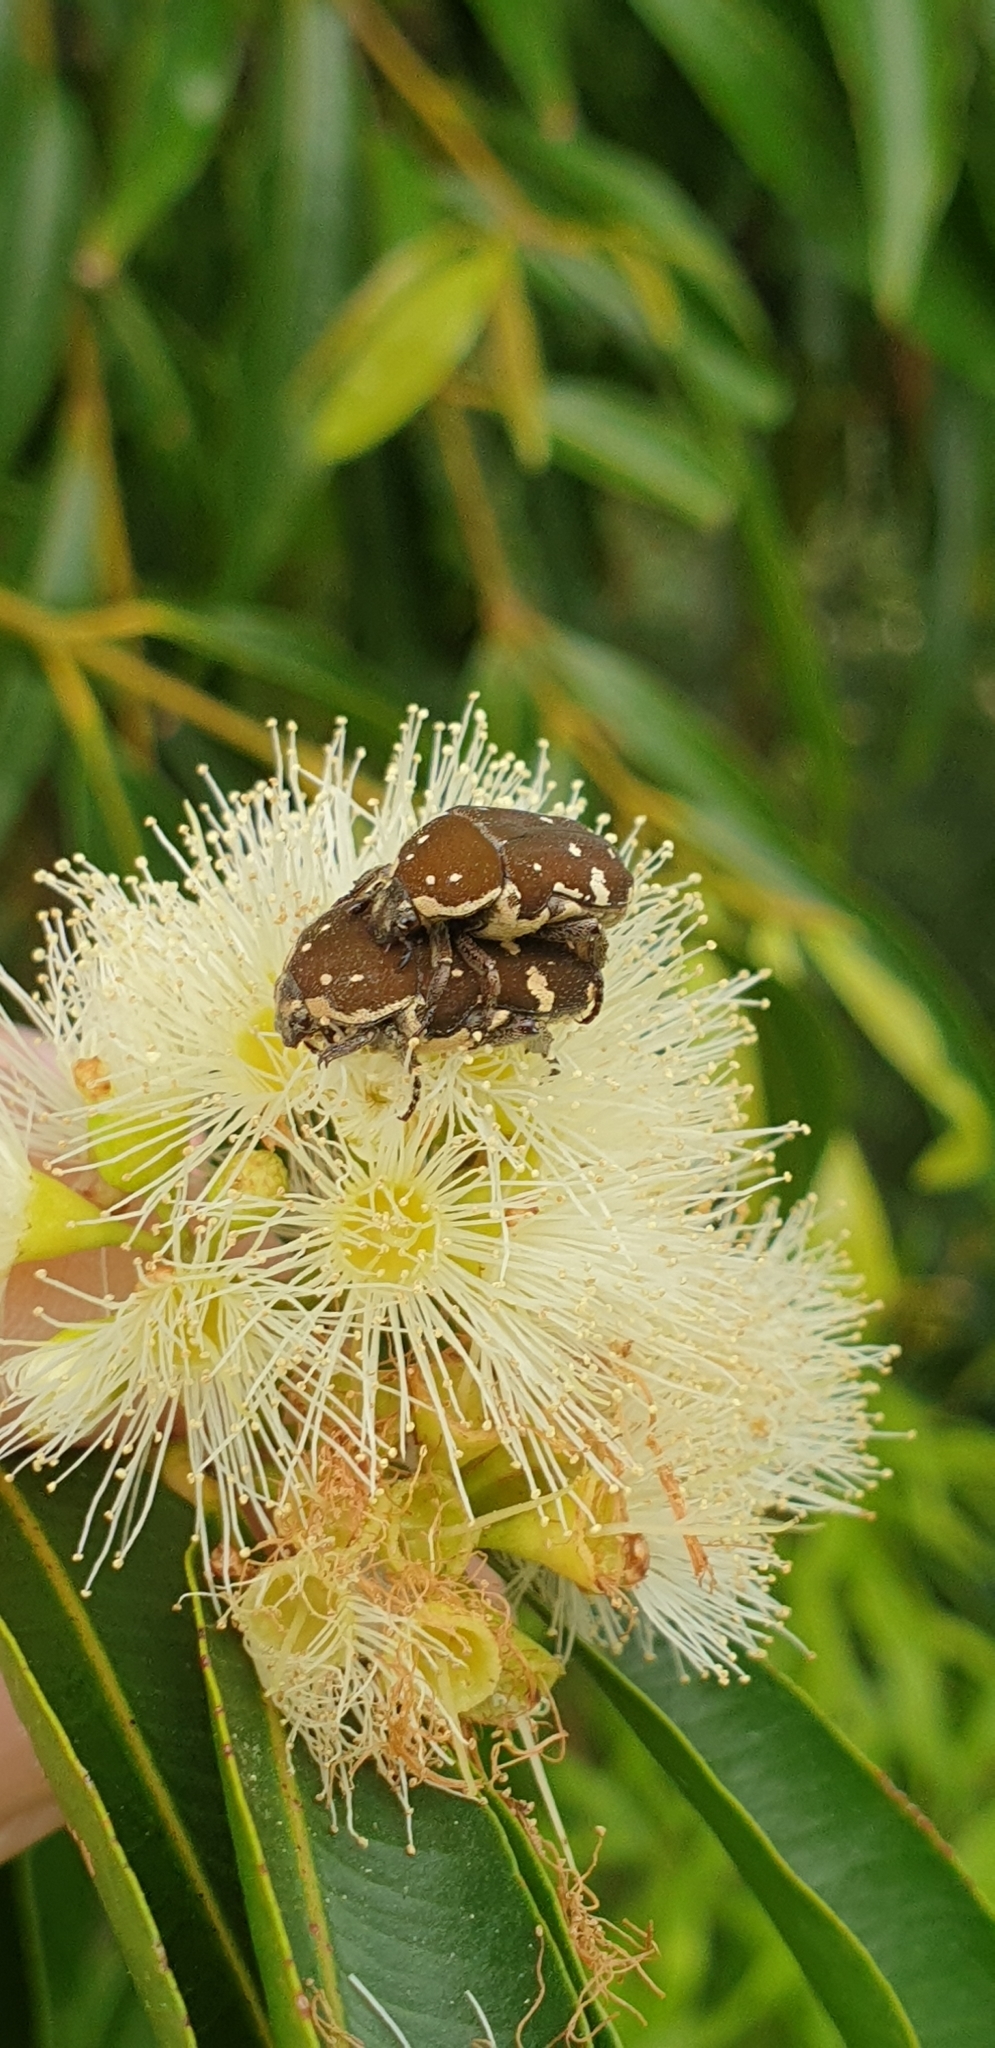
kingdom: Animalia
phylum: Arthropoda
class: Insecta
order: Coleoptera
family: Scarabaeidae
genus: Glycyphana
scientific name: Glycyphana stolata
